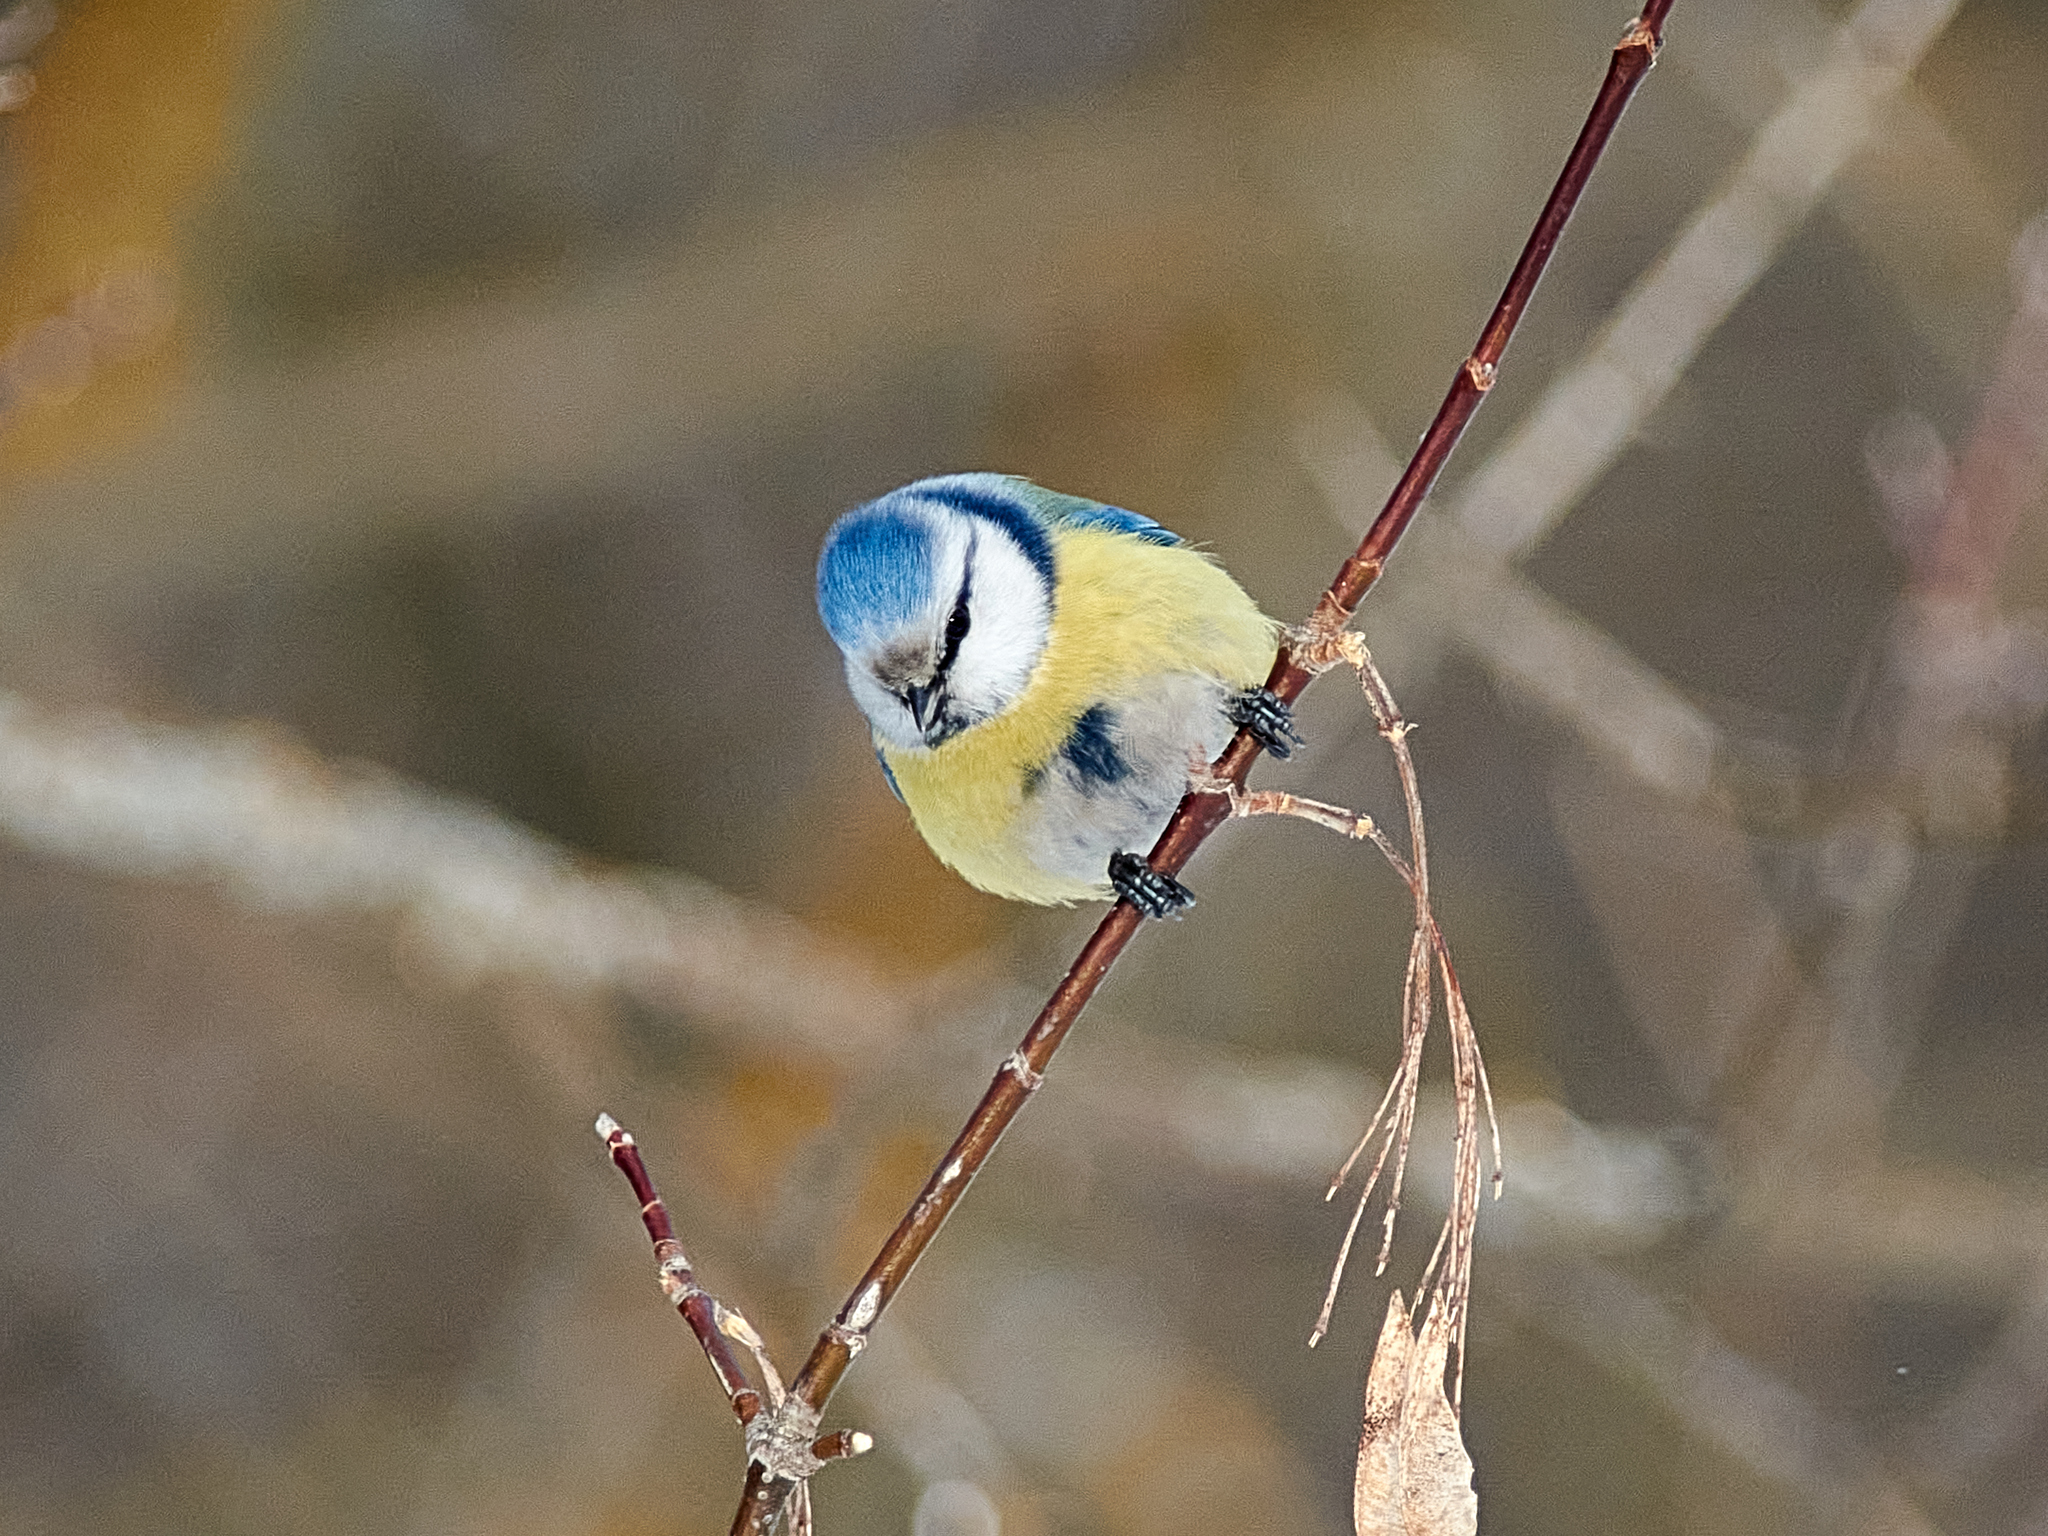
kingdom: Animalia
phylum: Chordata
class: Aves
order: Passeriformes
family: Paridae
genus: Cyanistes
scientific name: Cyanistes caeruleus
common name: Eurasian blue tit
